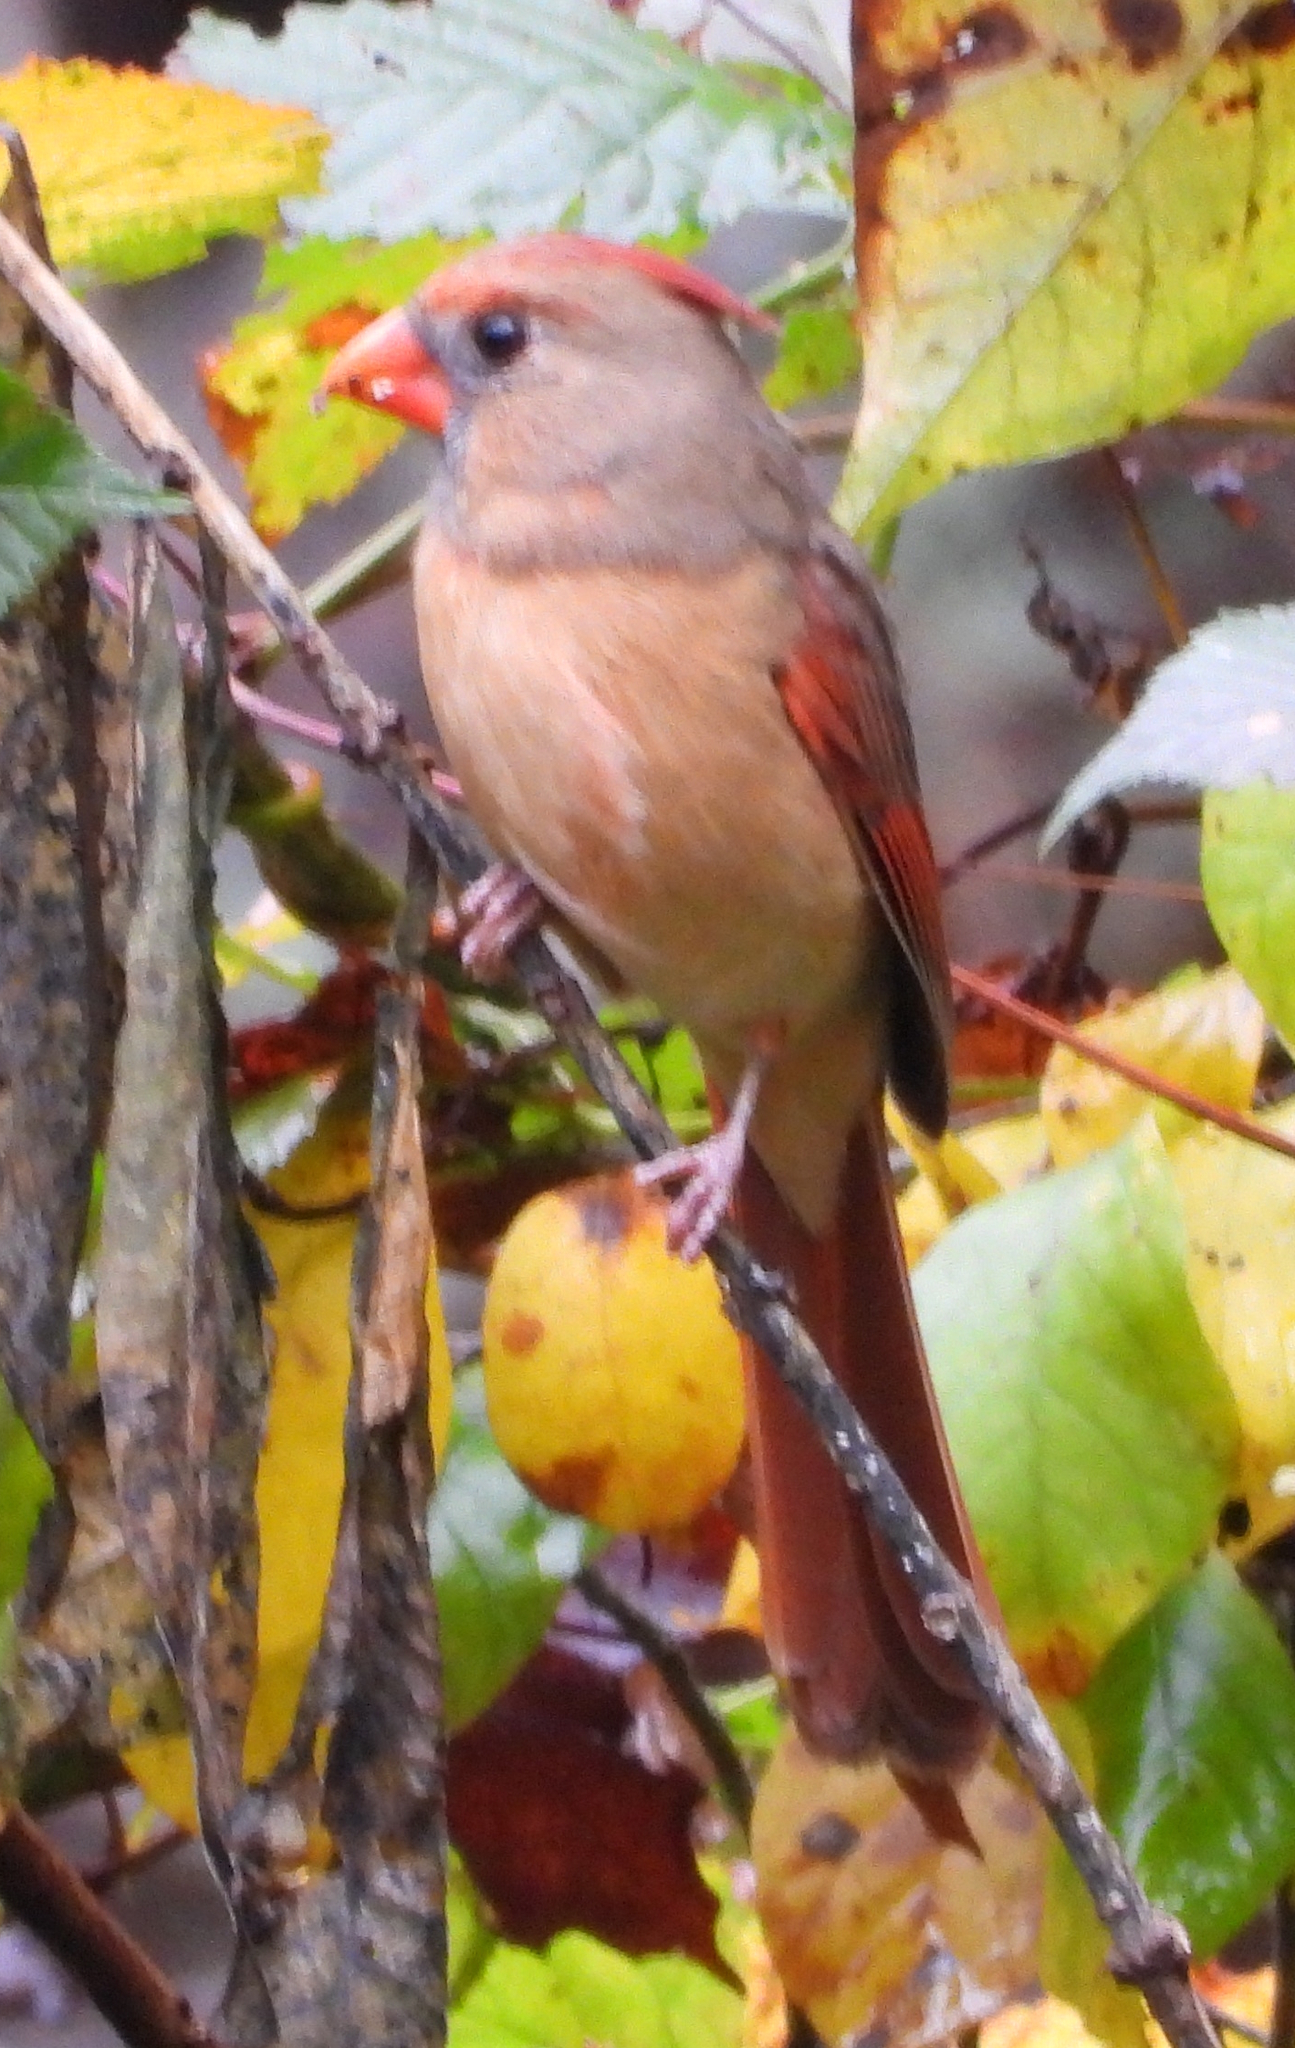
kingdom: Animalia
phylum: Chordata
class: Aves
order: Passeriformes
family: Cardinalidae
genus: Cardinalis
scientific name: Cardinalis cardinalis
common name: Northern cardinal
